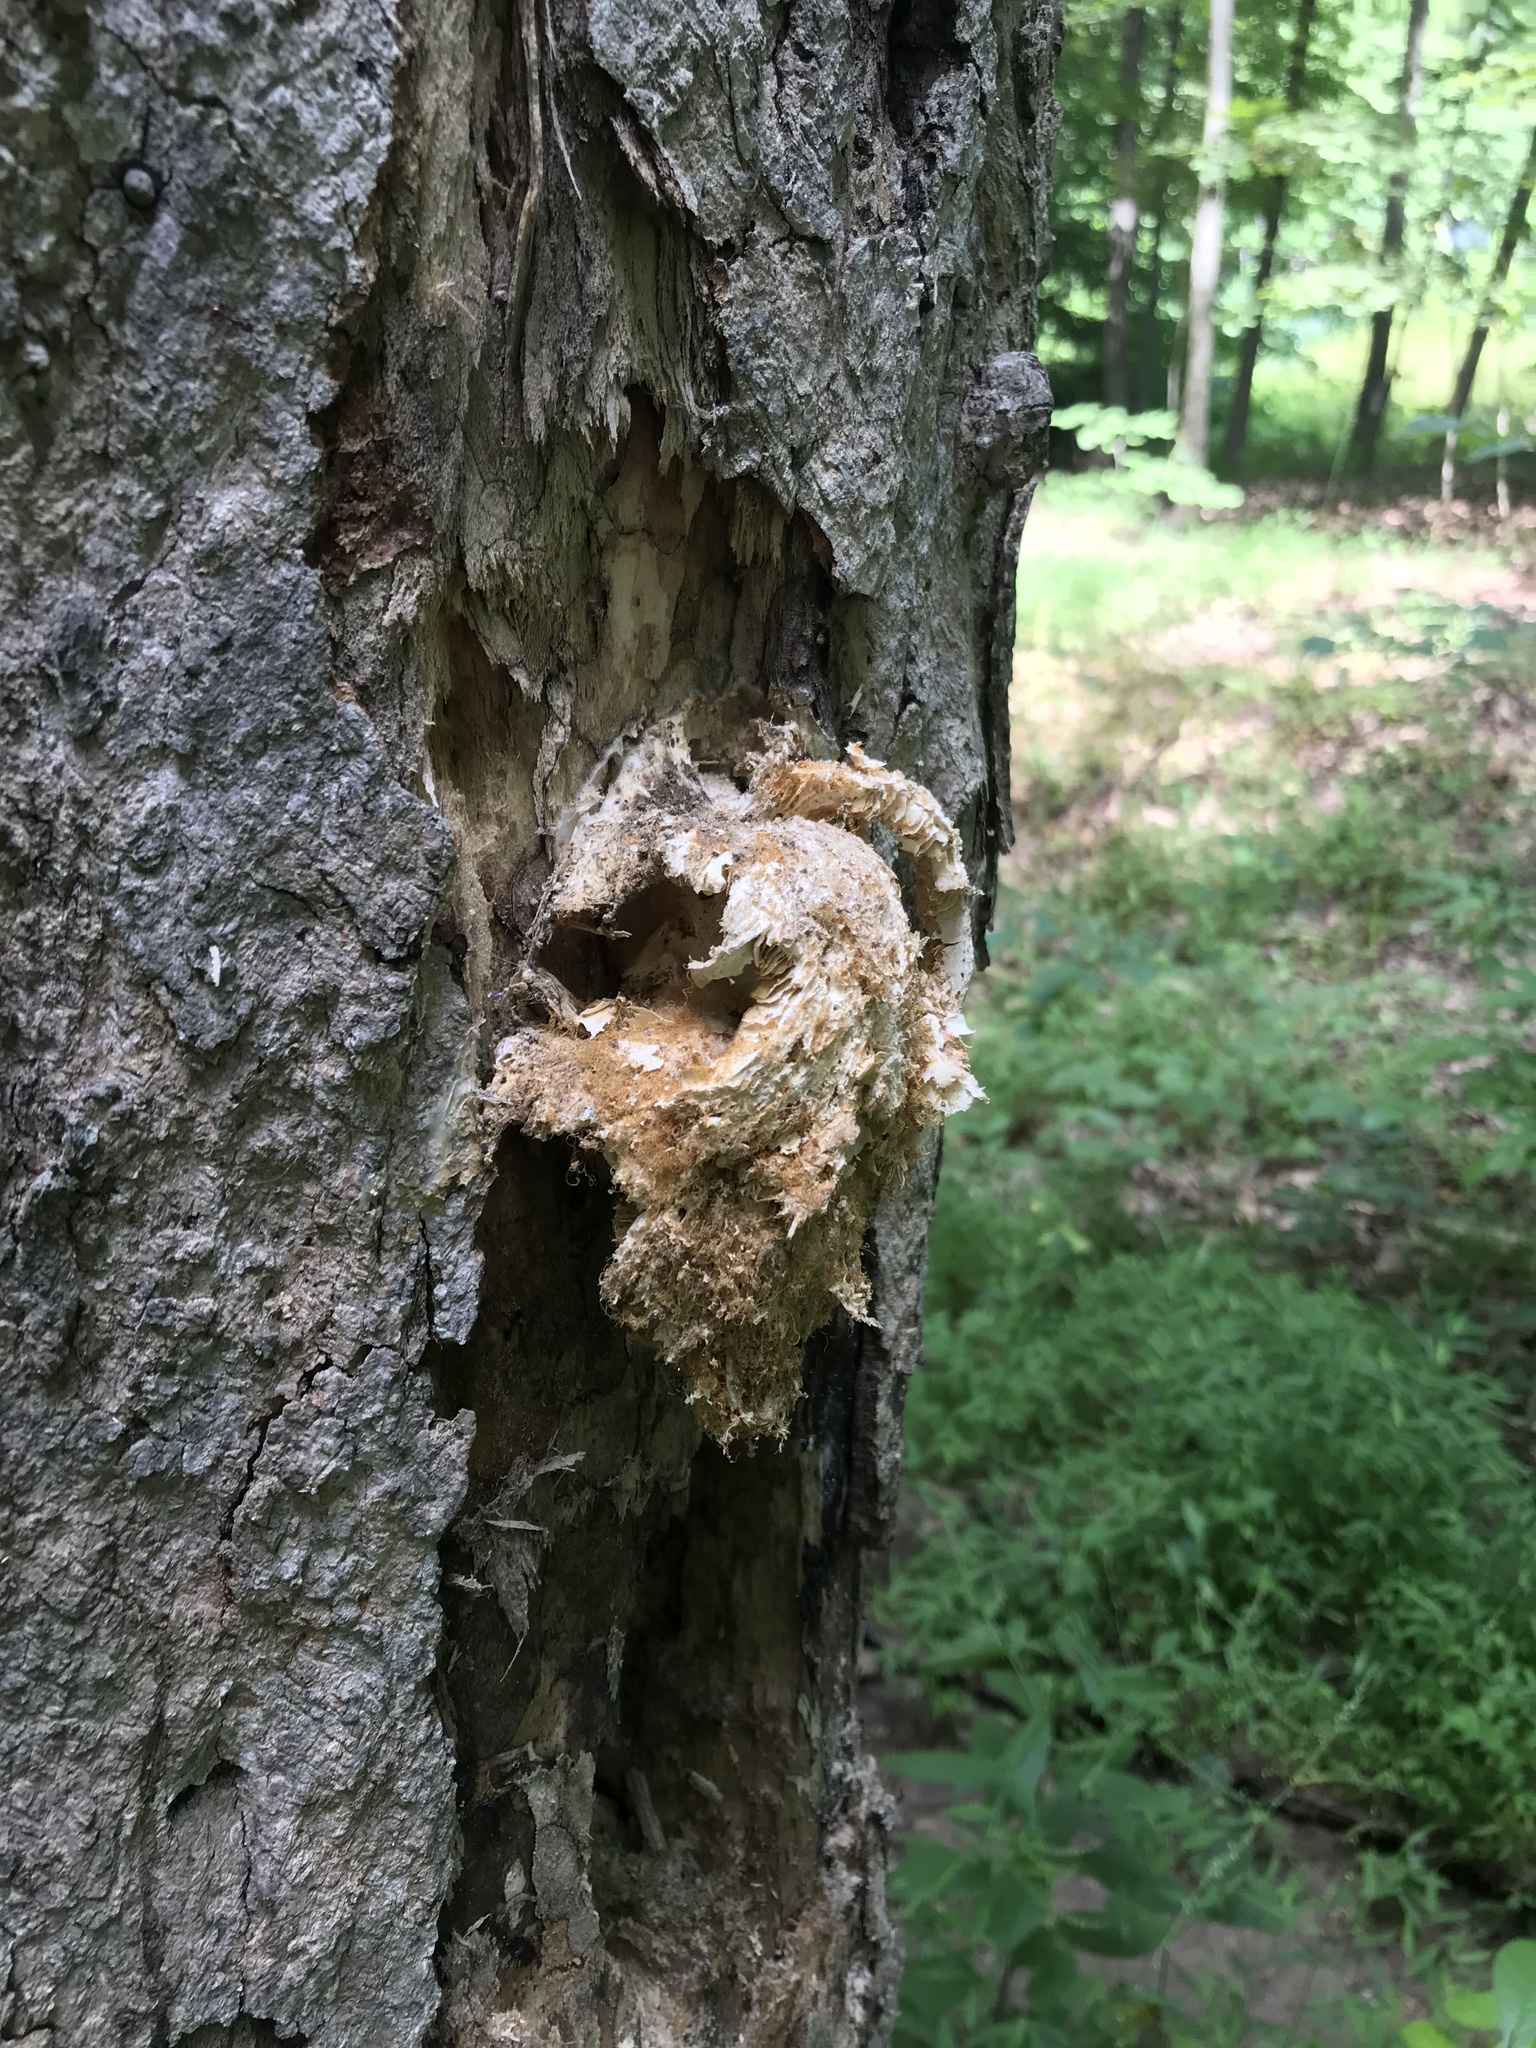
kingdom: Fungi
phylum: Basidiomycota
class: Agaricomycetes
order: Agaricales
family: Pleurotaceae
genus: Pleurotus
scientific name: Pleurotus pulmonarius
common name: Pale oyster
